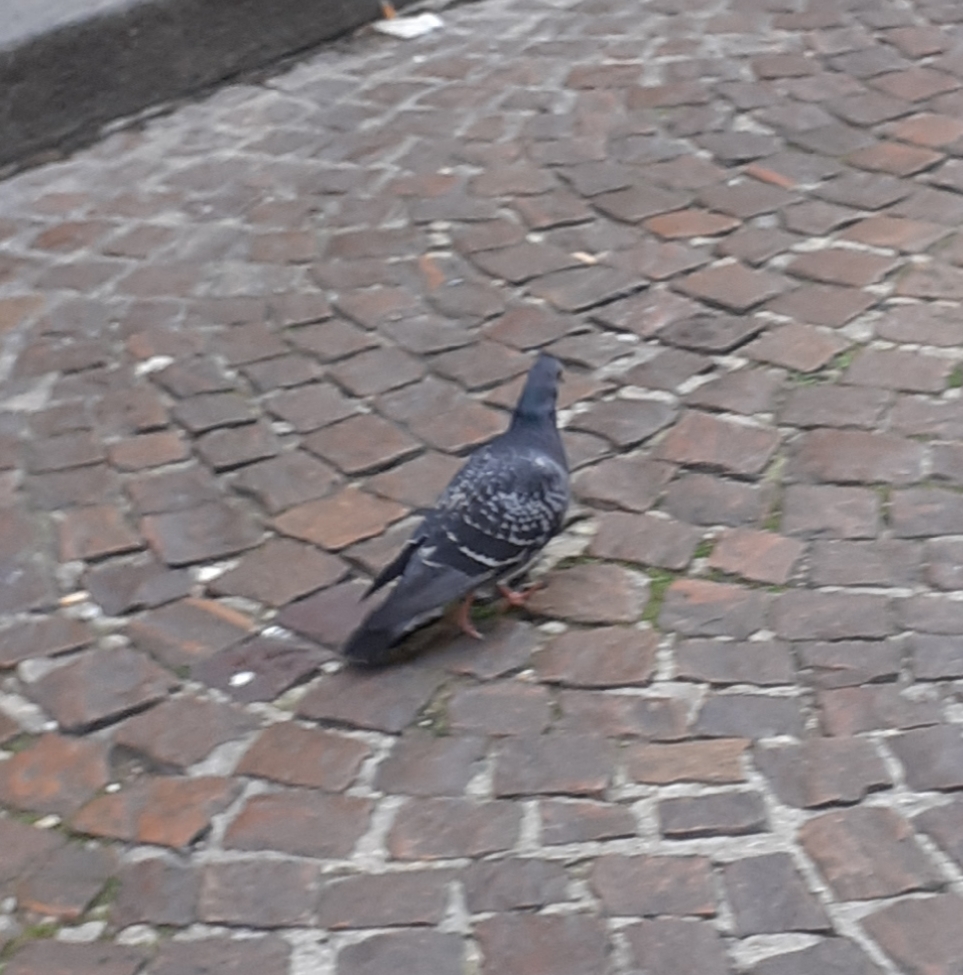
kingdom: Animalia
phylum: Chordata
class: Aves
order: Columbiformes
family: Columbidae
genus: Columba
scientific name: Columba livia
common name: Rock pigeon
